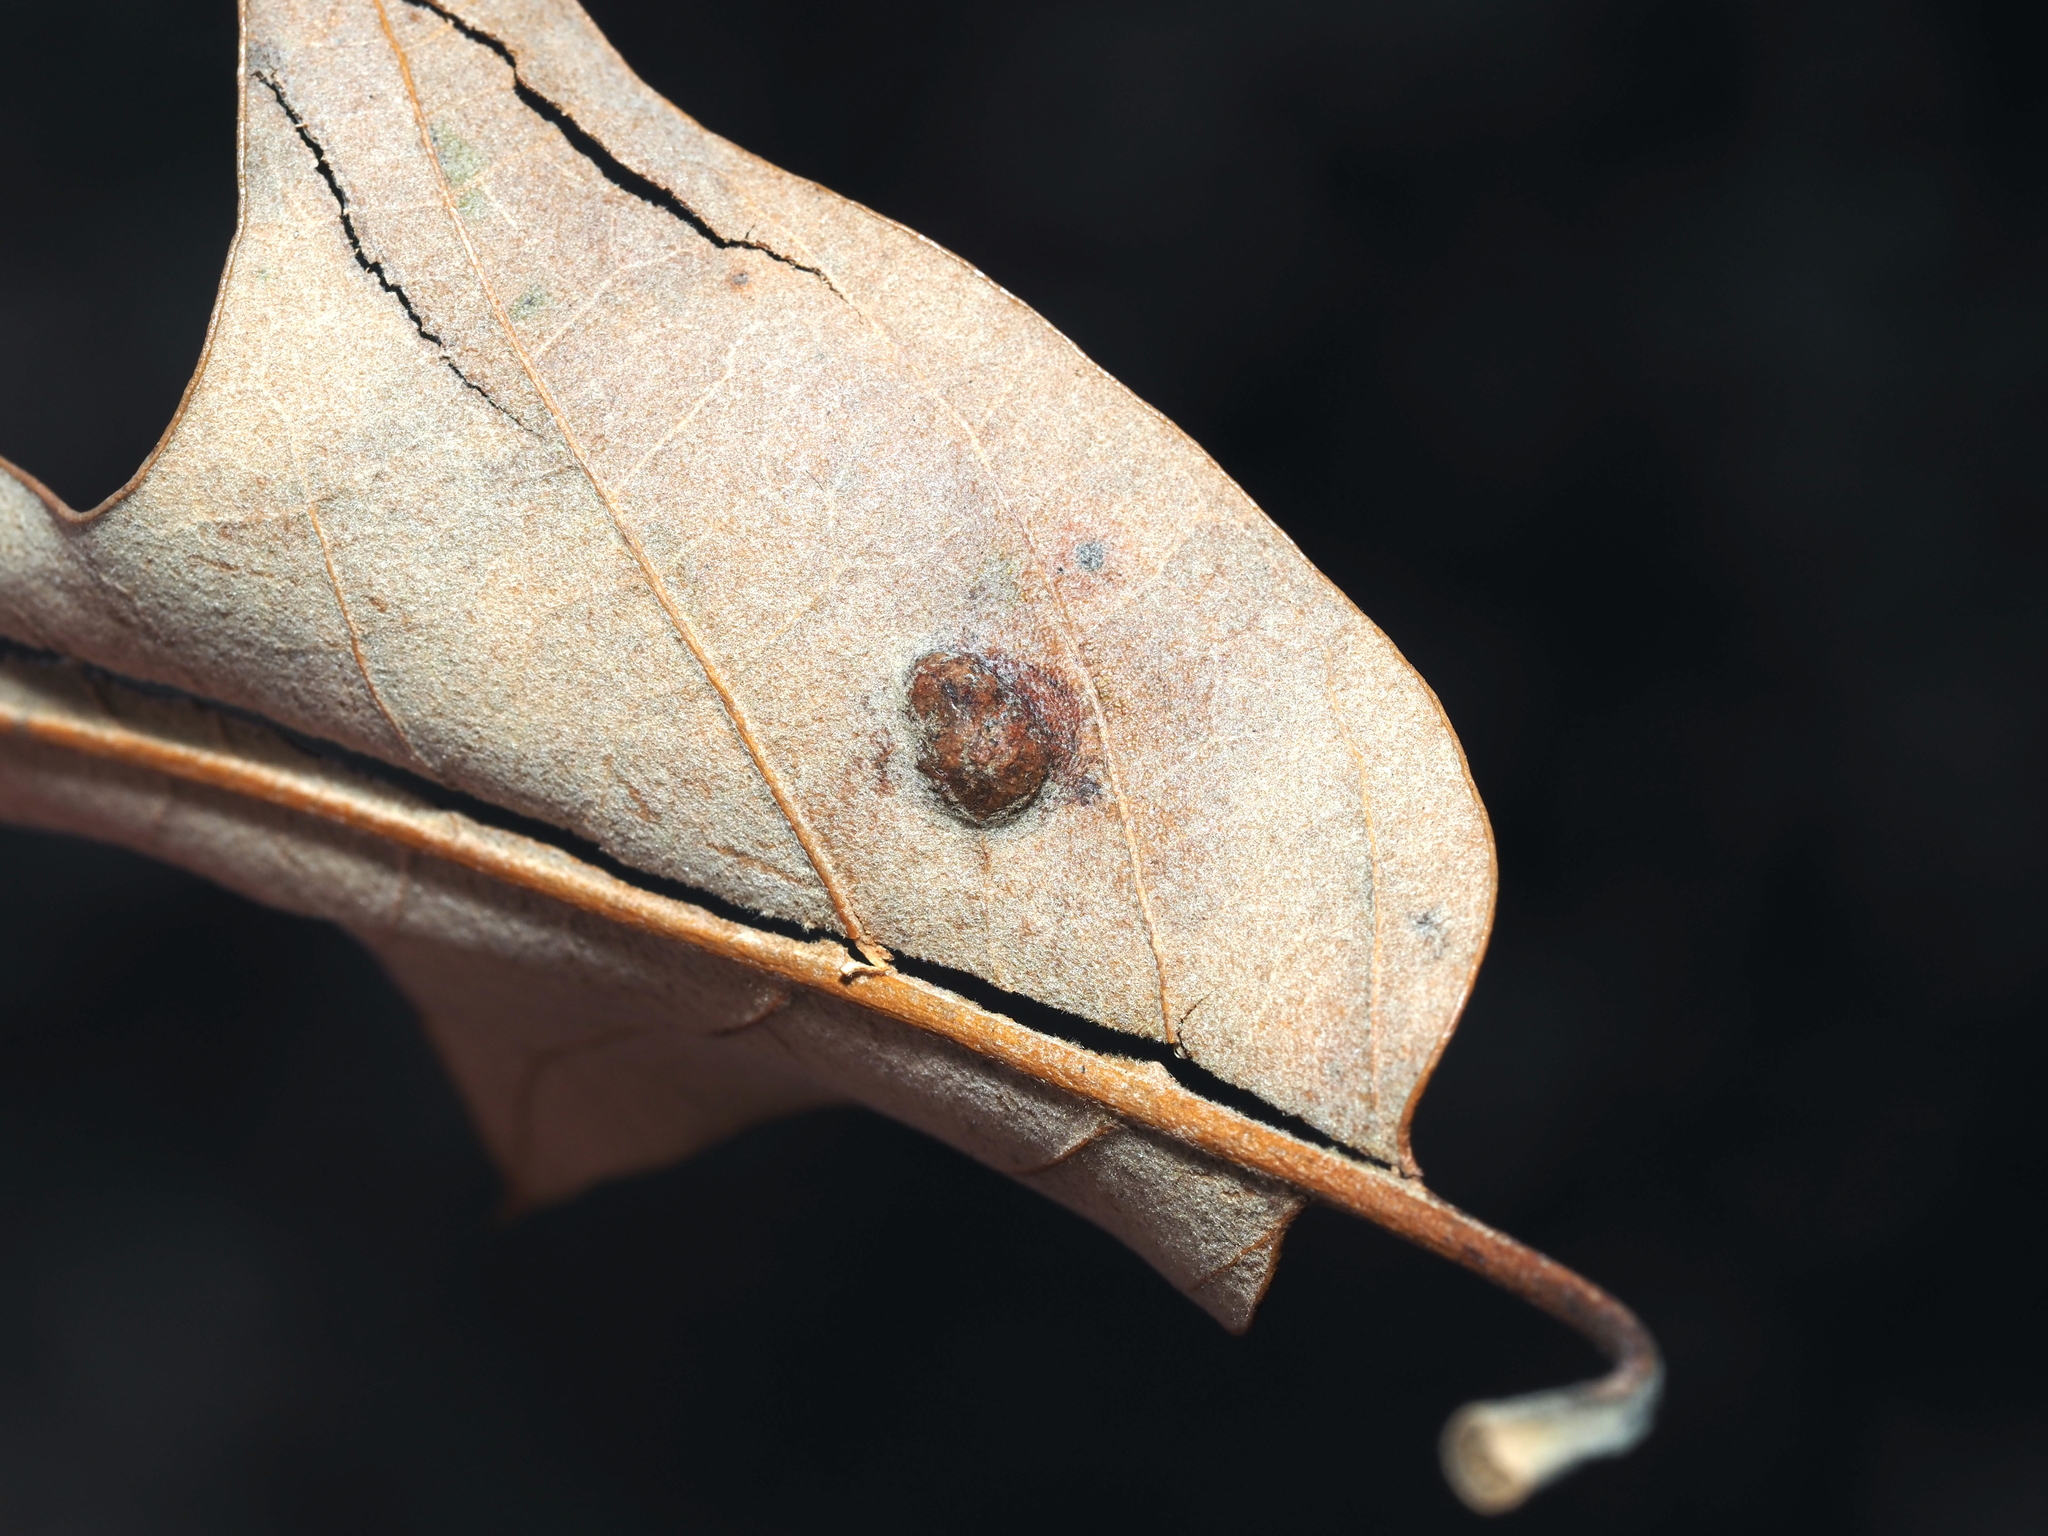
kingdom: Animalia
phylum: Arthropoda
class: Insecta
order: Hymenoptera
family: Cynipidae
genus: Melikaiella
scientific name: Melikaiella ostensackeni
